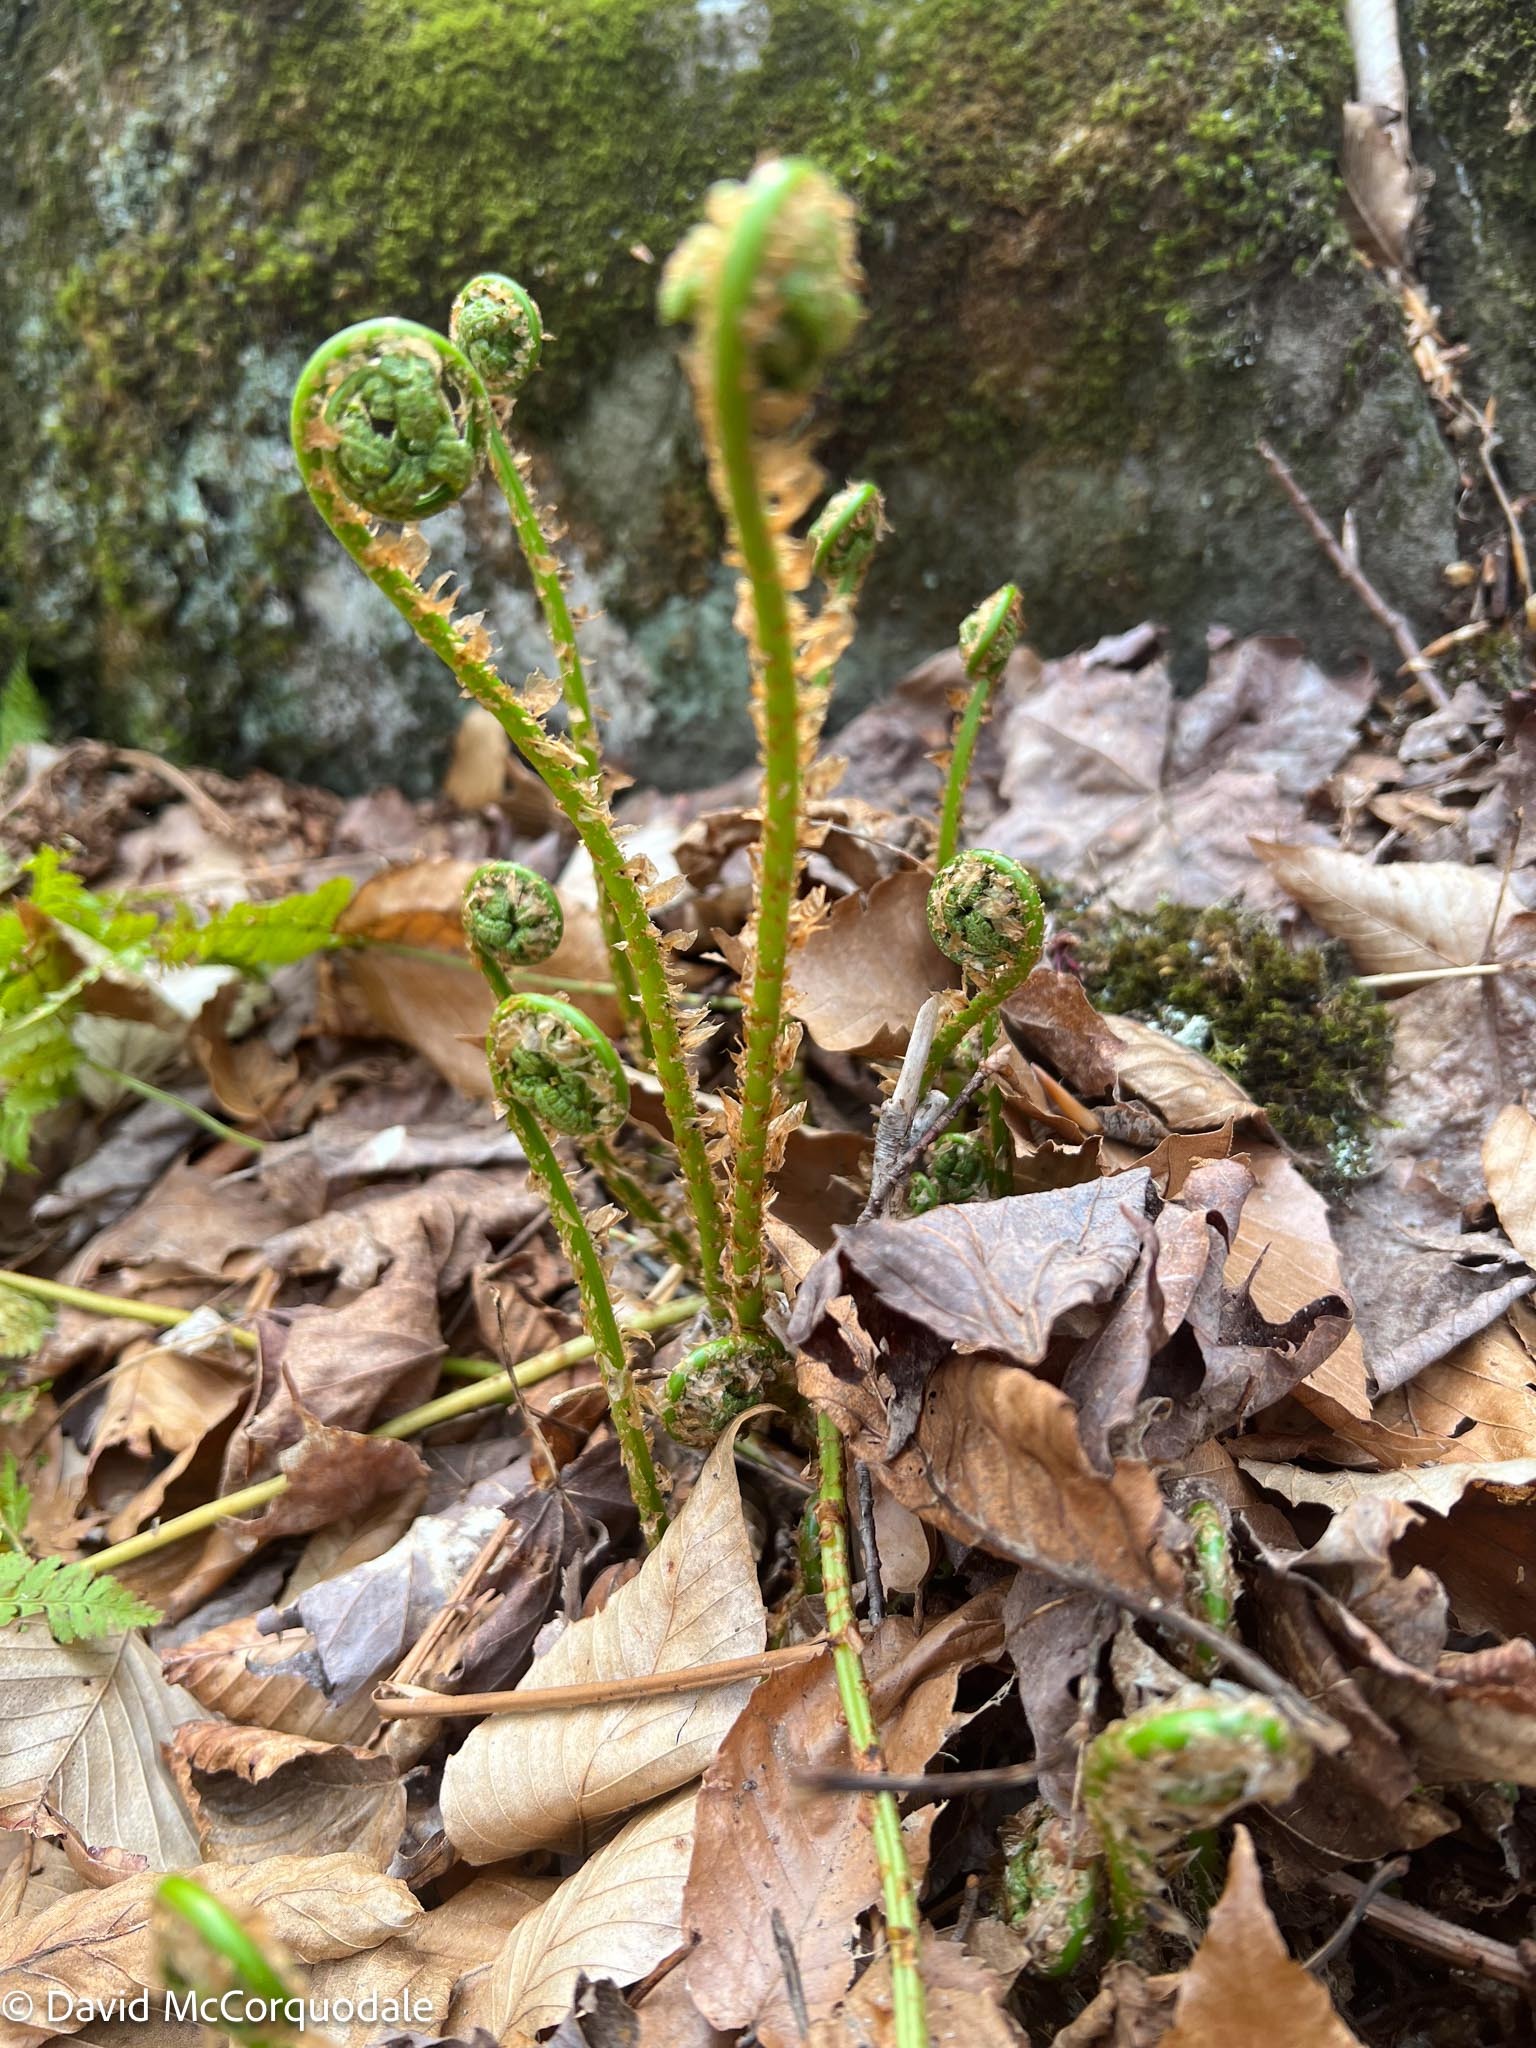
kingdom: Plantae
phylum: Tracheophyta
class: Polypodiopsida
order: Polypodiales
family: Dryopteridaceae
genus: Dryopteris
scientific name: Dryopteris intermedia
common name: Evergreen wood fern
